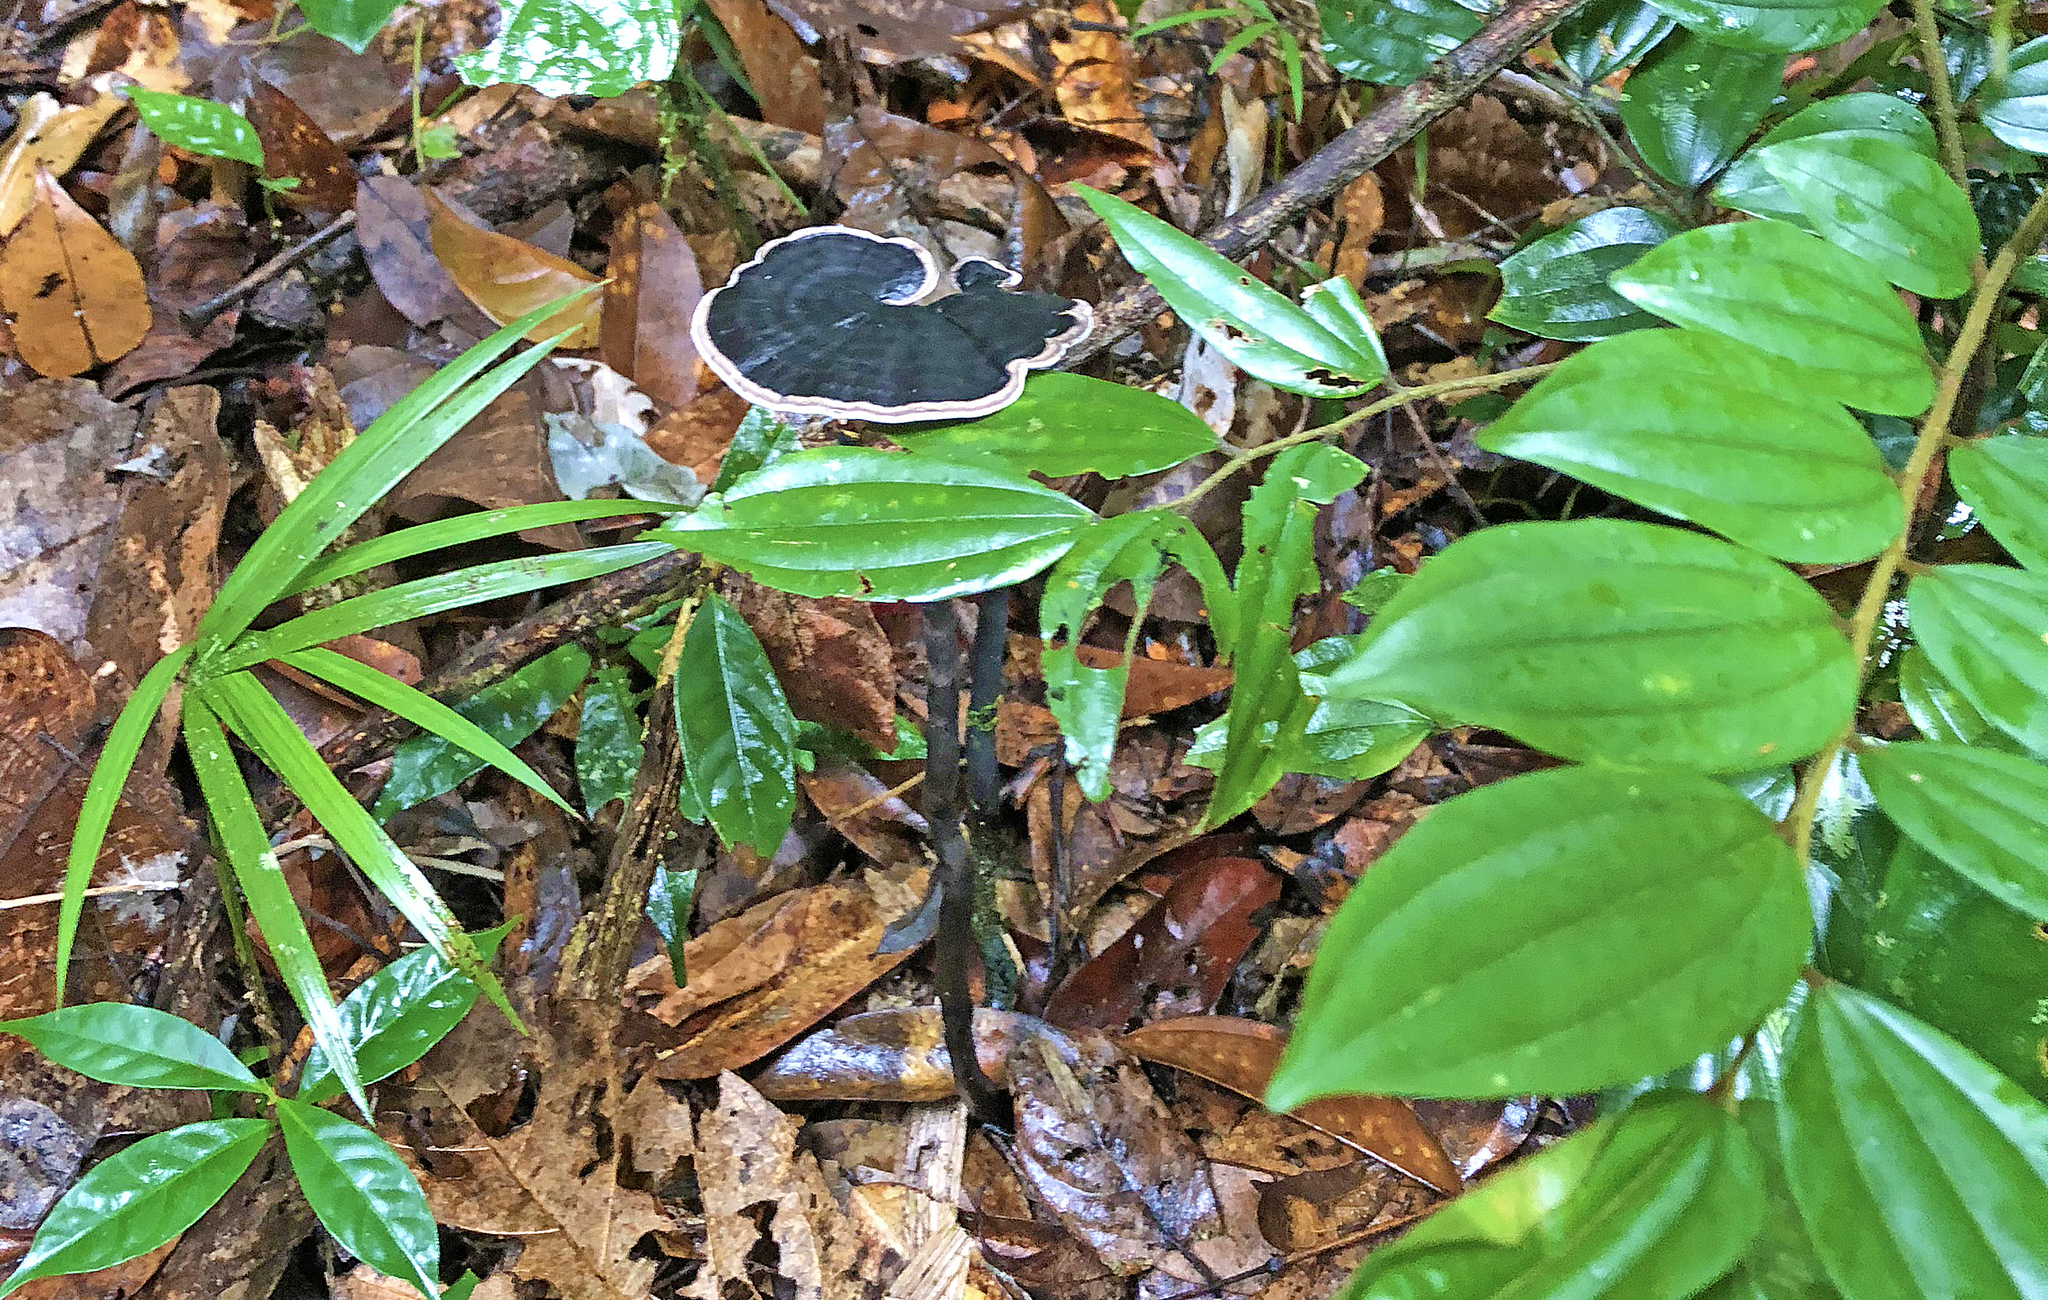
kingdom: Fungi
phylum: Basidiomycota
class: Agaricomycetes
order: Polyporales
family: Ganodermataceae
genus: Sanguinoderma
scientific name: Sanguinoderma rugosum
